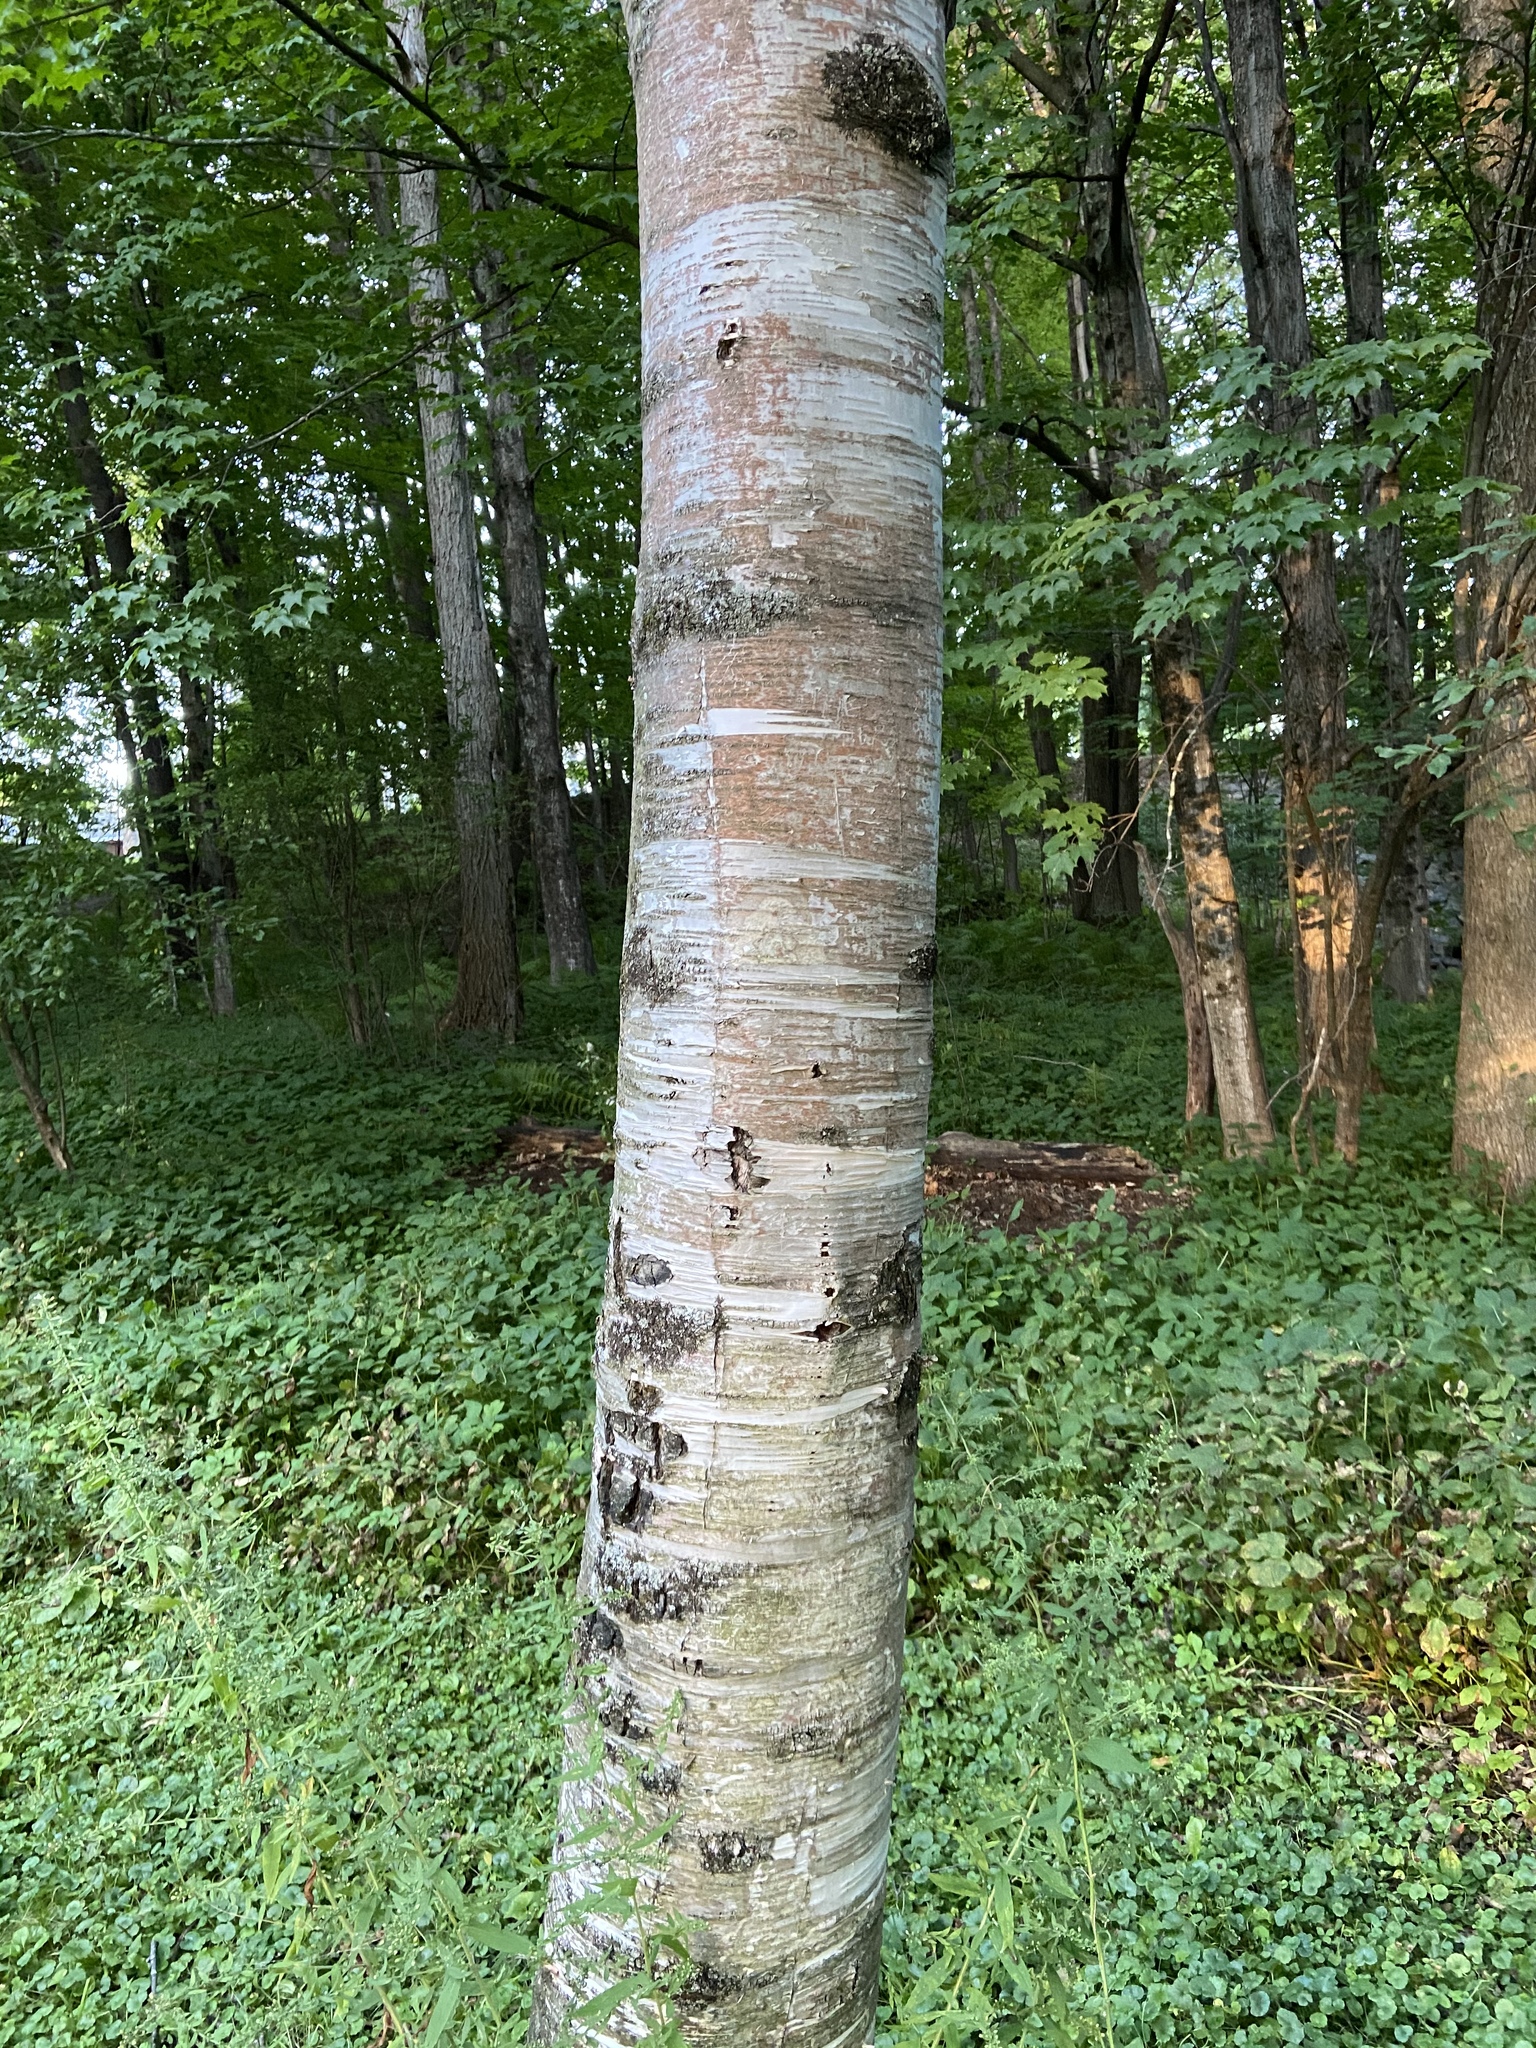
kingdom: Plantae
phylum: Tracheophyta
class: Magnoliopsida
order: Fagales
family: Betulaceae
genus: Betula
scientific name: Betula papyrifera
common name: Paper birch
